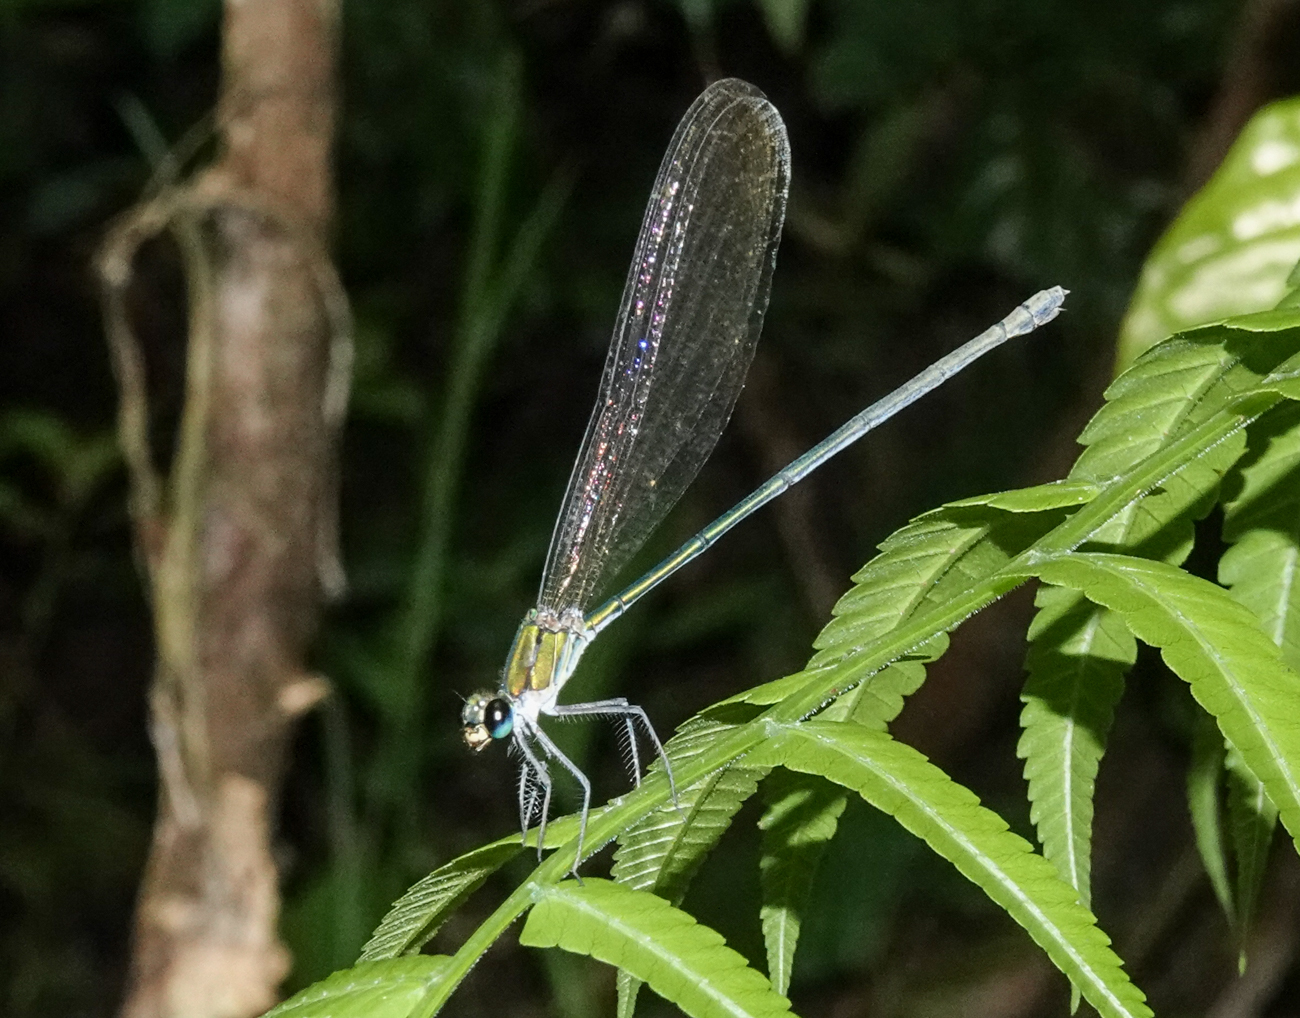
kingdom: Animalia
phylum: Arthropoda
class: Insecta
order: Odonata
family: Calopterygidae
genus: Vestalis
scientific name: Vestalis gracilis
